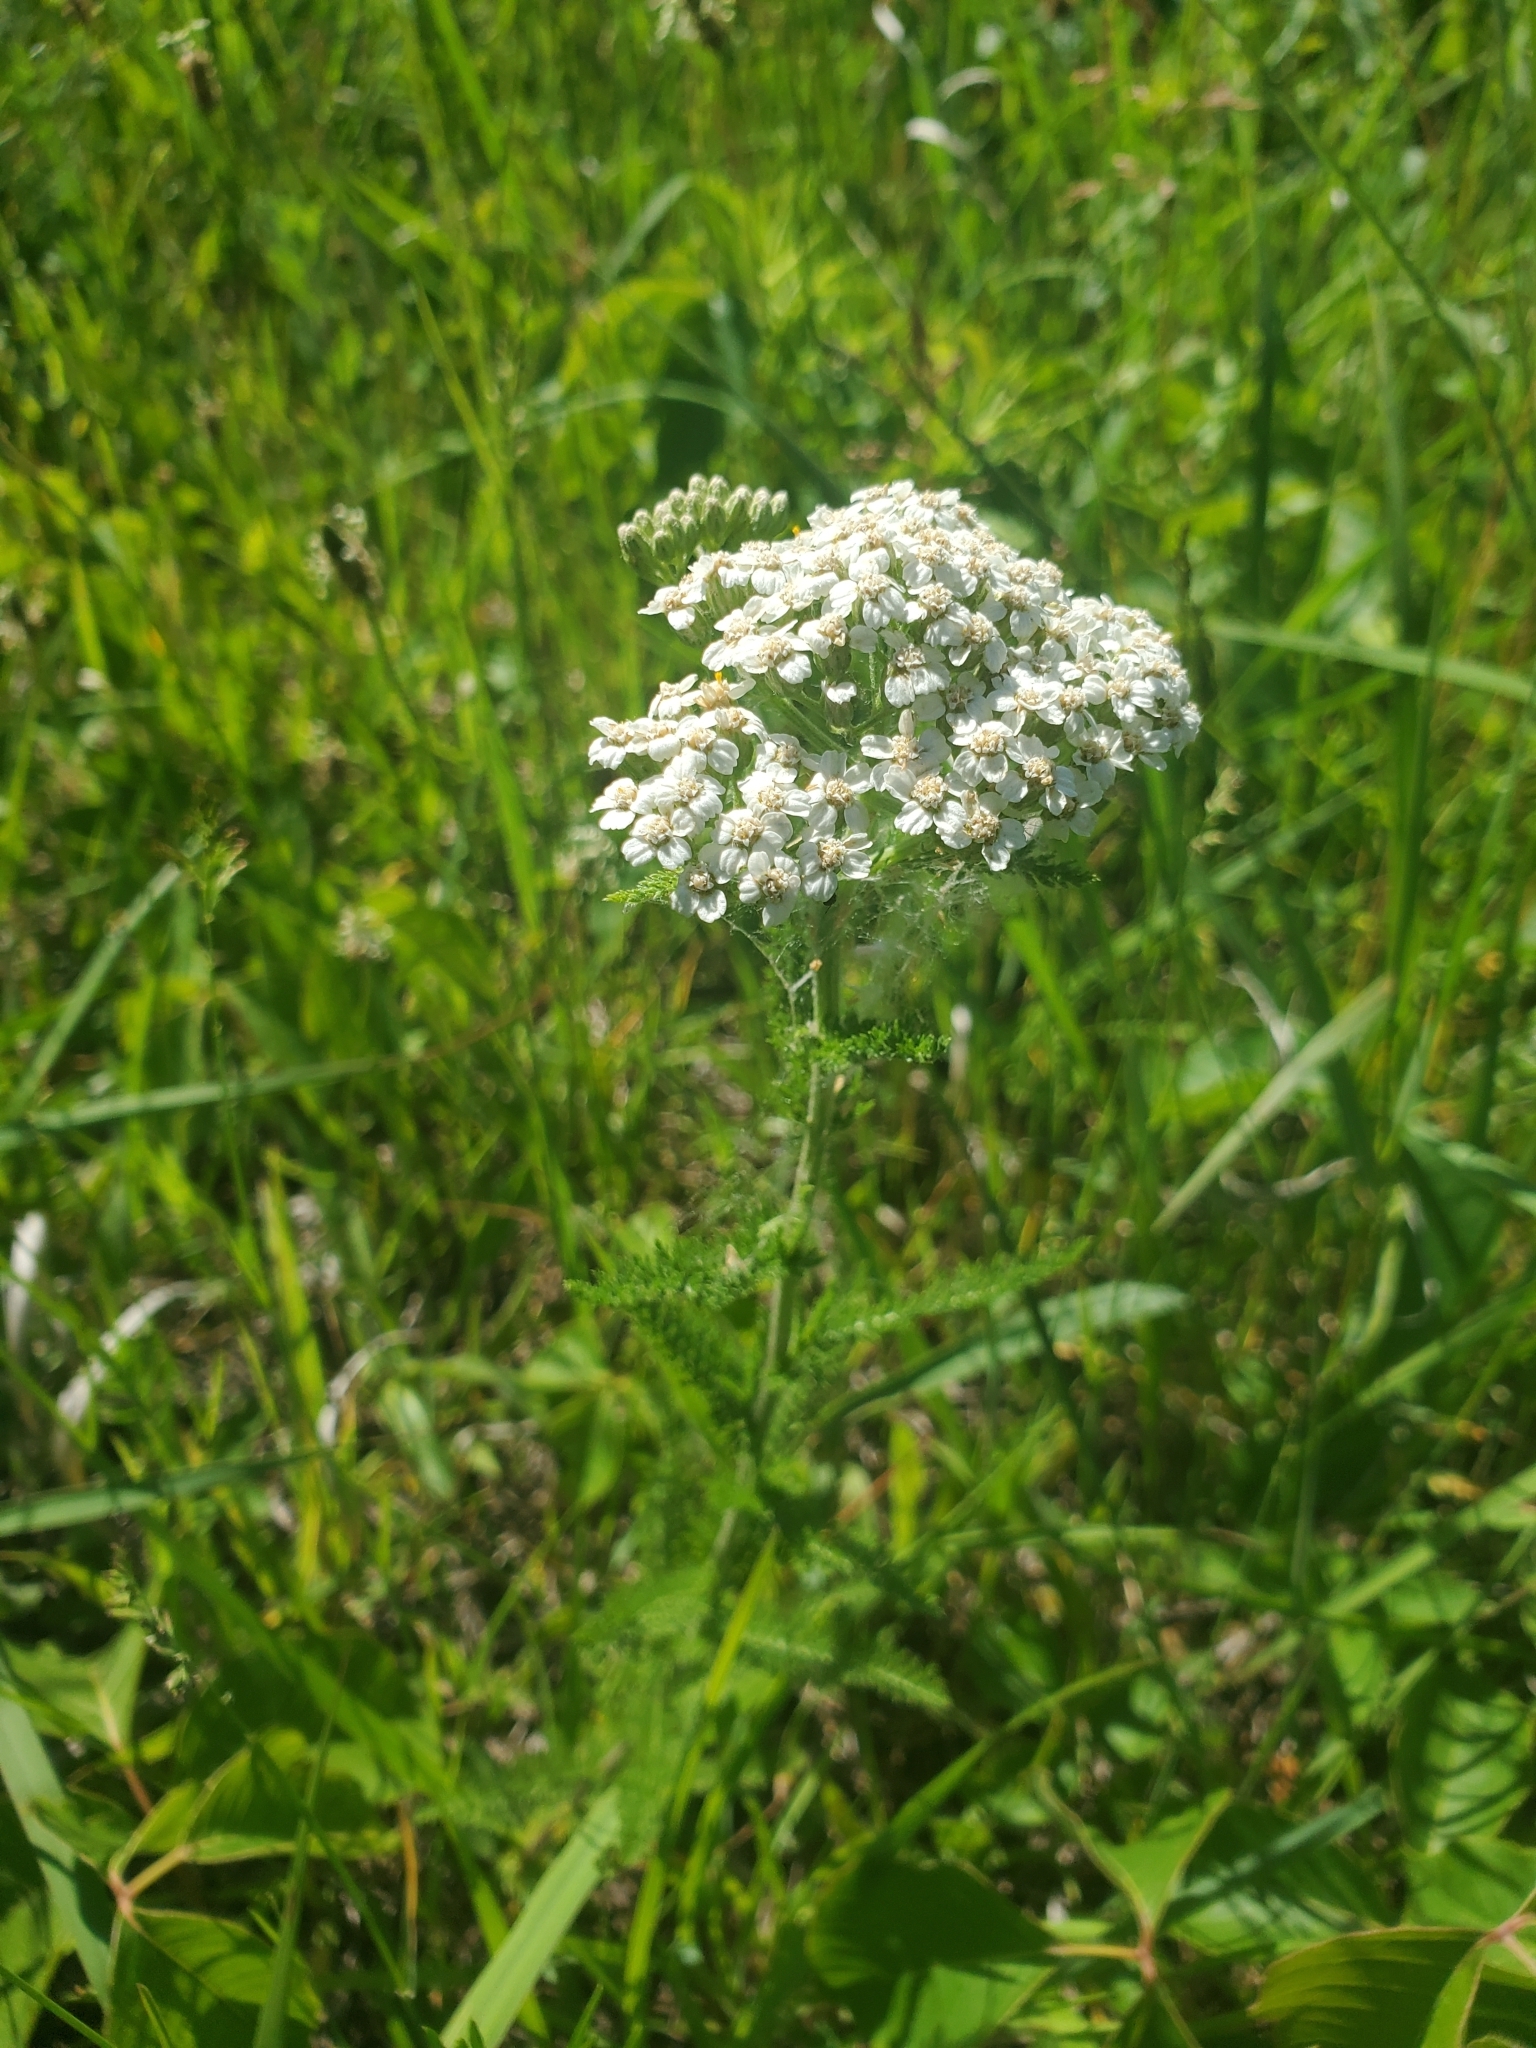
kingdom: Plantae
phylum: Tracheophyta
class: Magnoliopsida
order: Asterales
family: Asteraceae
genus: Achillea
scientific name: Achillea millefolium
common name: Yarrow
